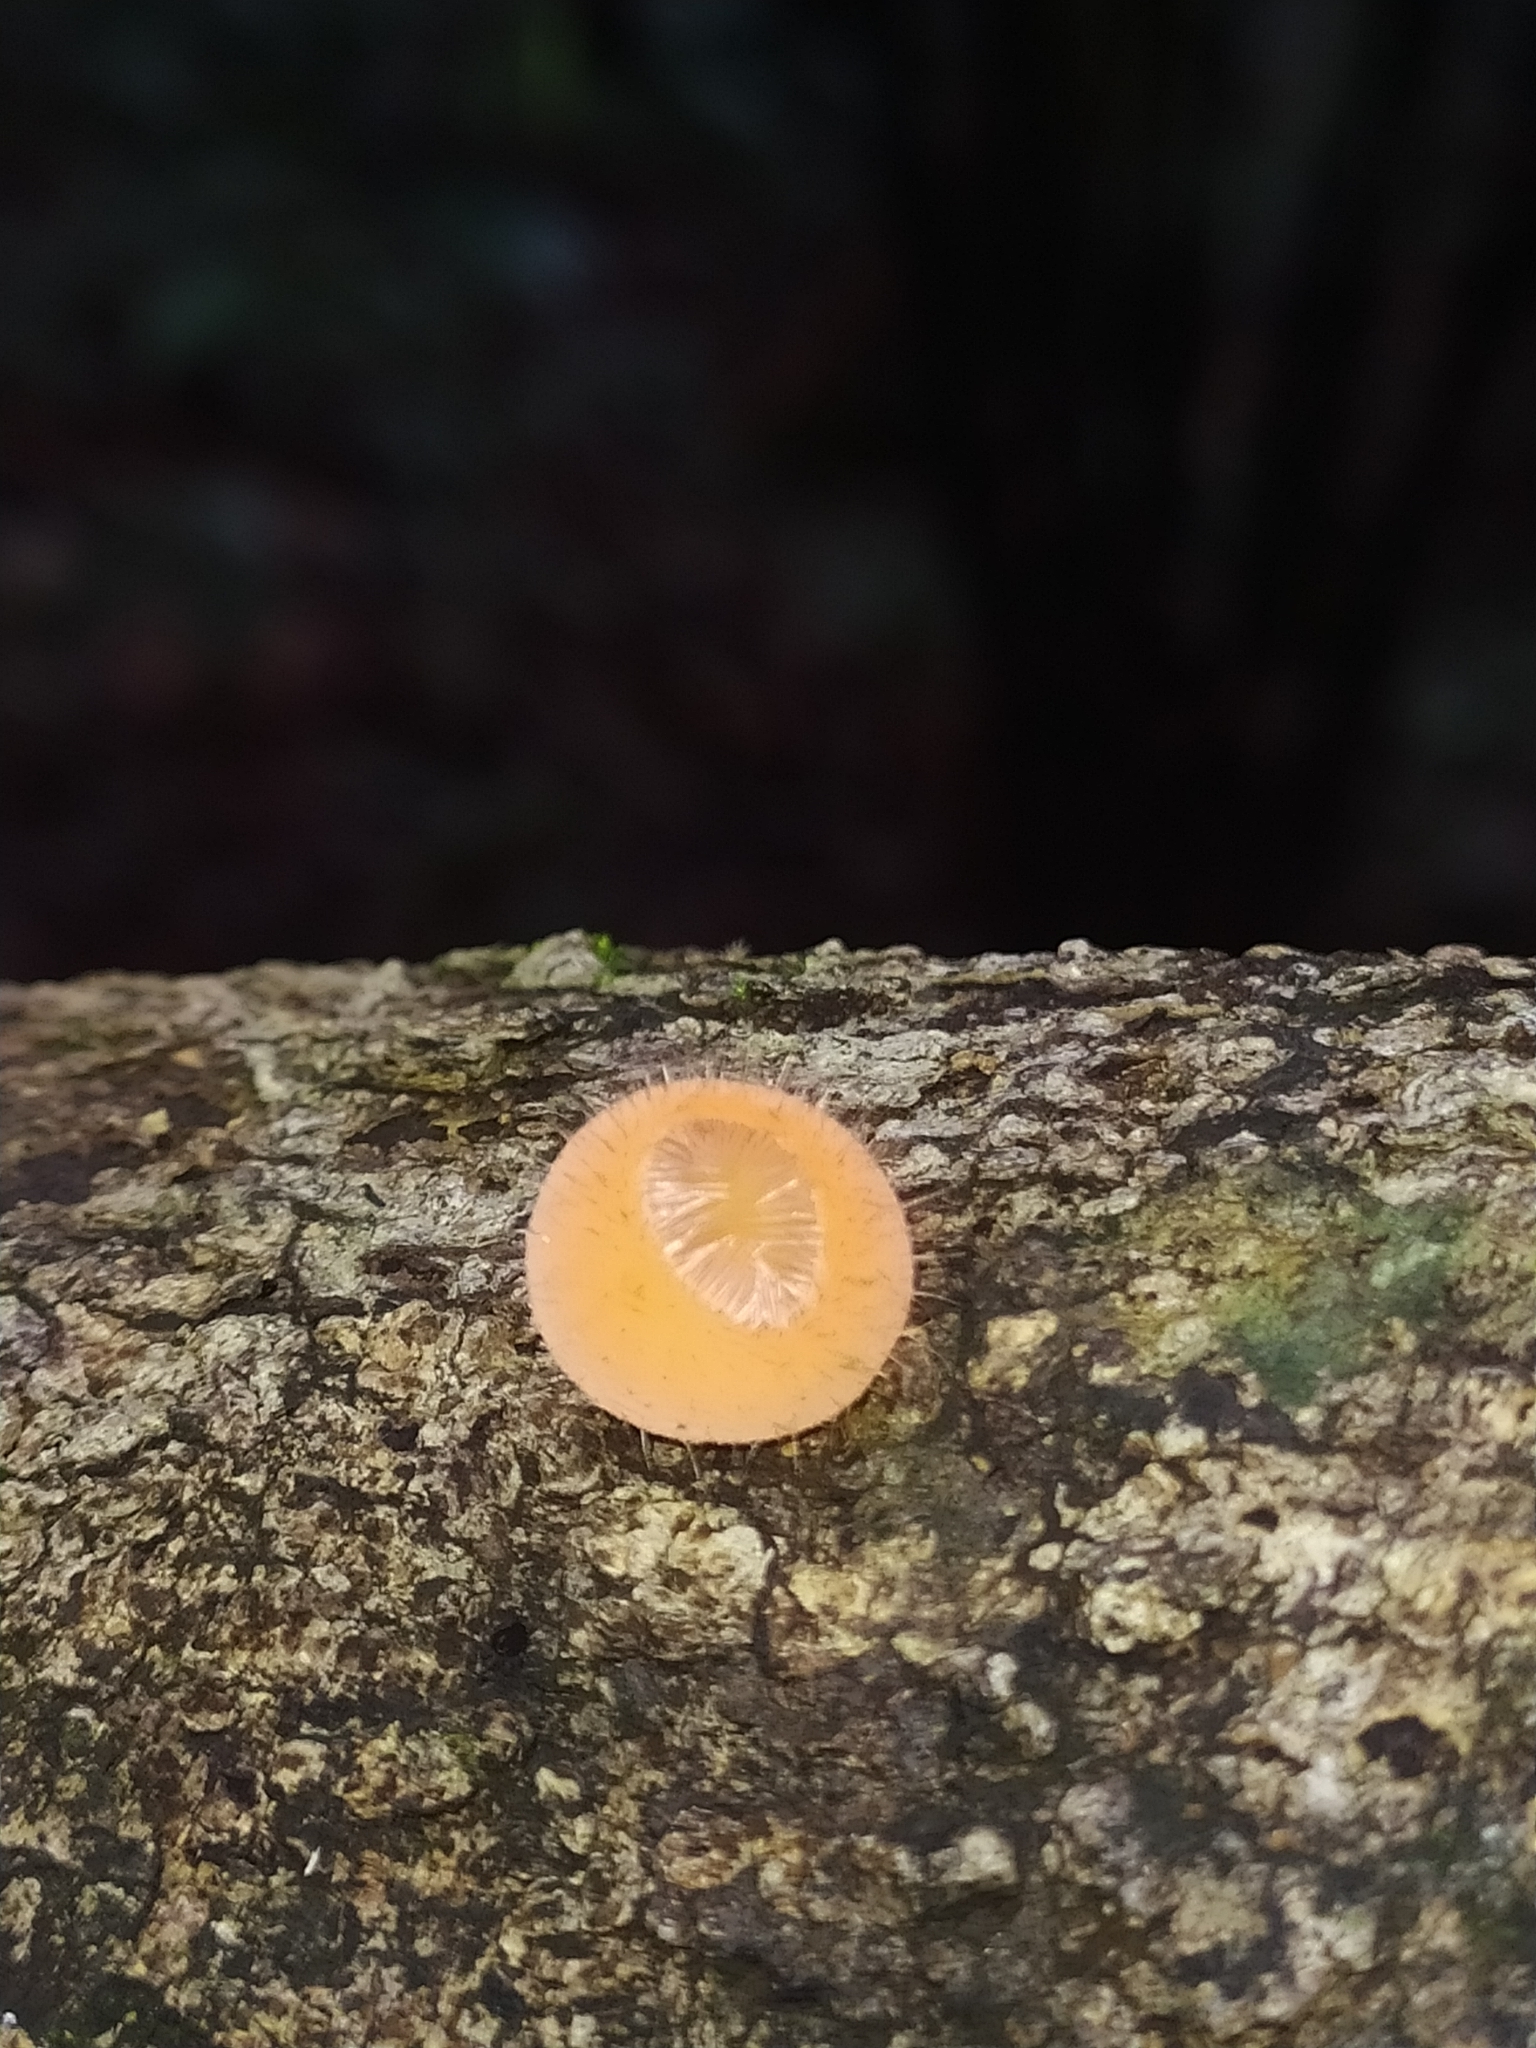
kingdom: Fungi
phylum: Ascomycota
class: Pezizomycetes
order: Pezizales
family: Sarcoscyphaceae
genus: Cookeina
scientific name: Cookeina tricholoma
